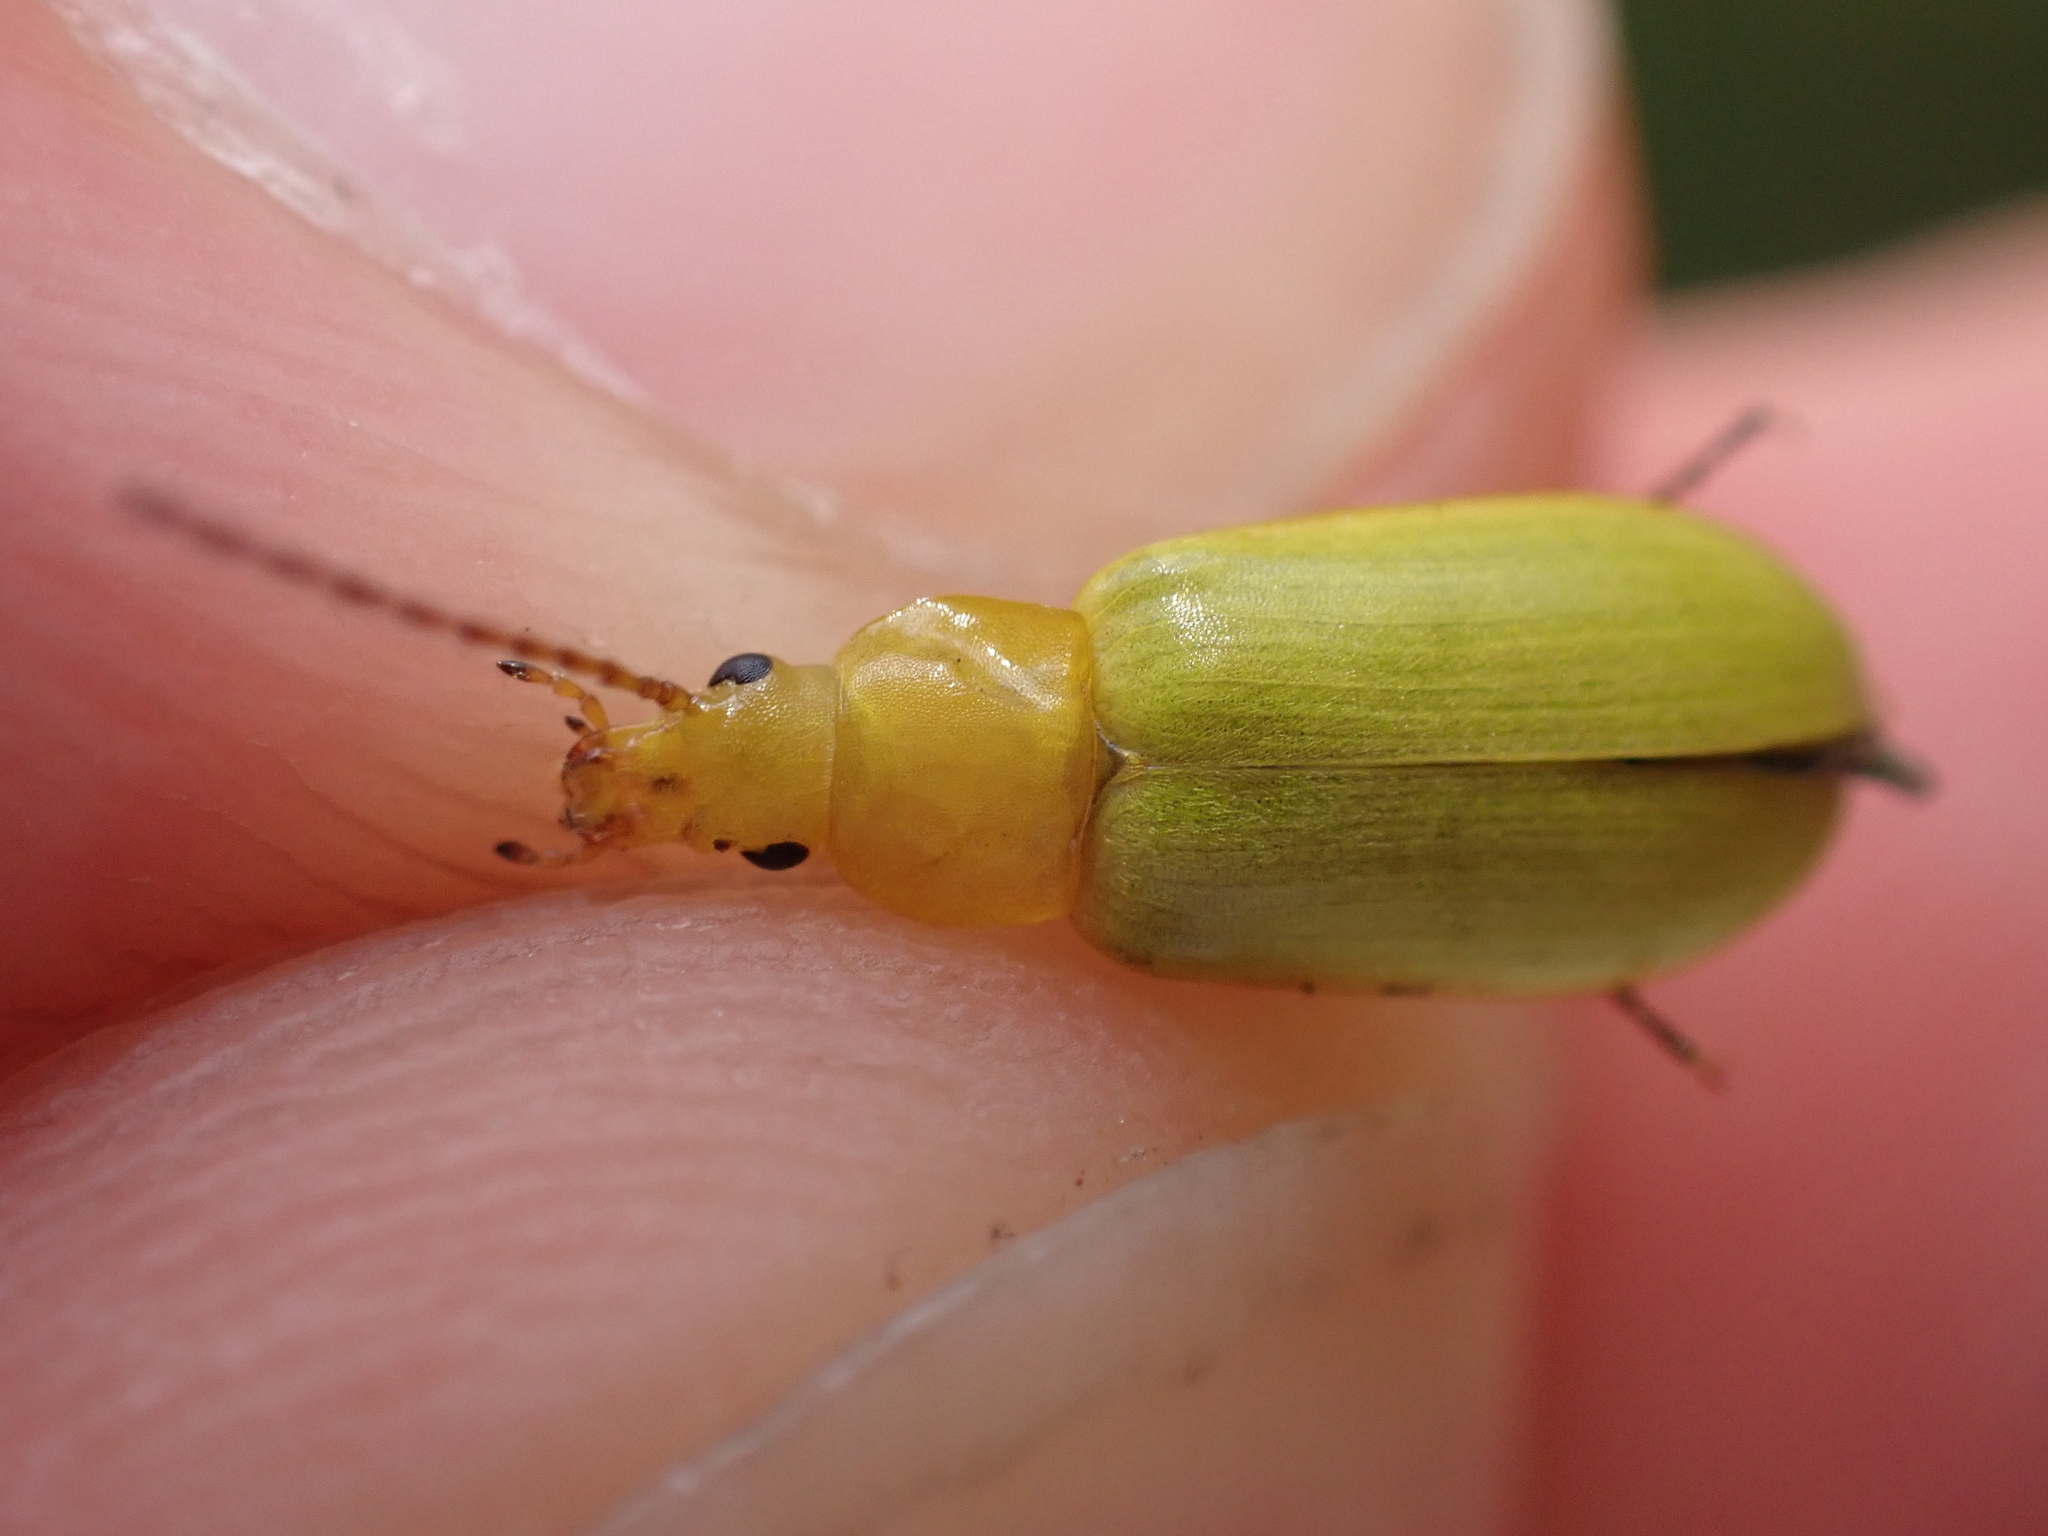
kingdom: Animalia
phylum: Arthropoda
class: Insecta
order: Coleoptera
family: Tenebrionidae
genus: Cteniopus
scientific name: Cteniopus sulphureus
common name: Sulphur beetle
